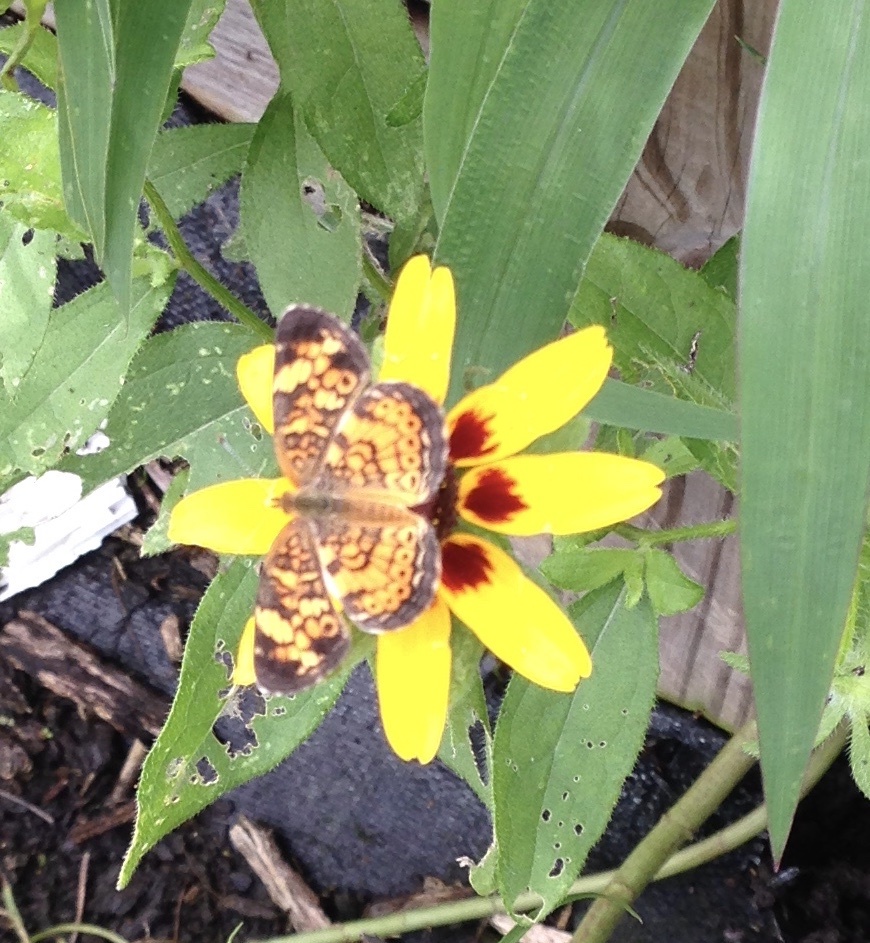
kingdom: Animalia
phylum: Arthropoda
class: Insecta
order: Lepidoptera
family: Nymphalidae
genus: Phyciodes
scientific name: Phyciodes tharos
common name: Pearl crescent
